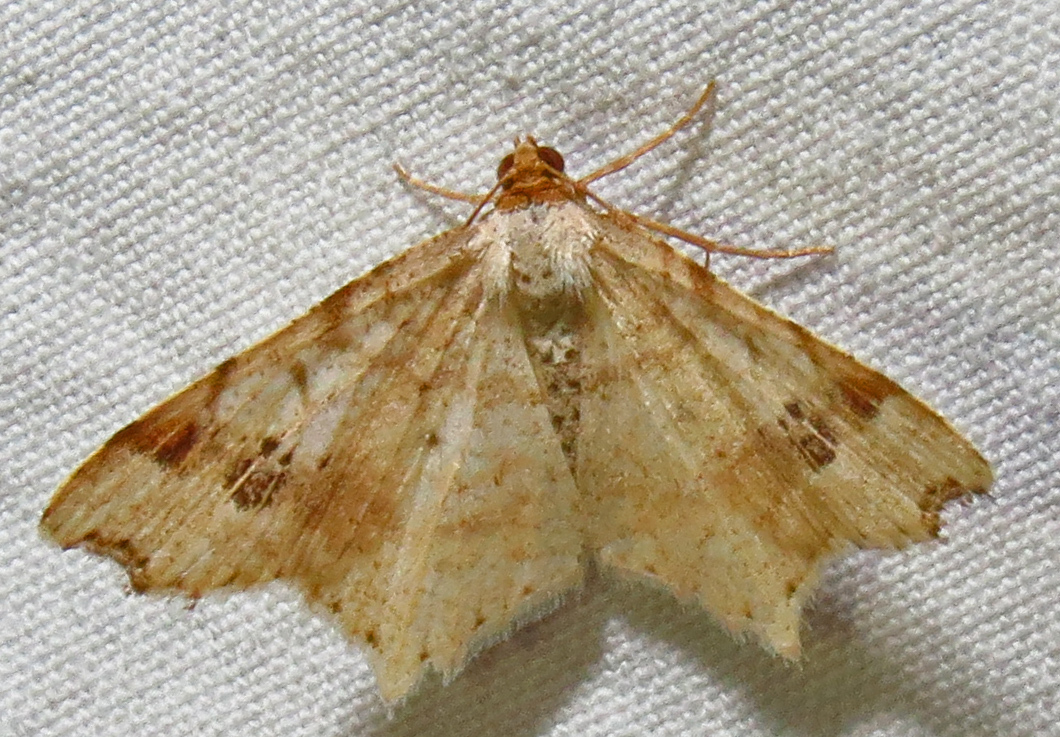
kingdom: Animalia
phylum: Arthropoda
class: Insecta
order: Lepidoptera
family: Geometridae
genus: Macaria
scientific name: Macaria promiscuata
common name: Promiscuous angle
